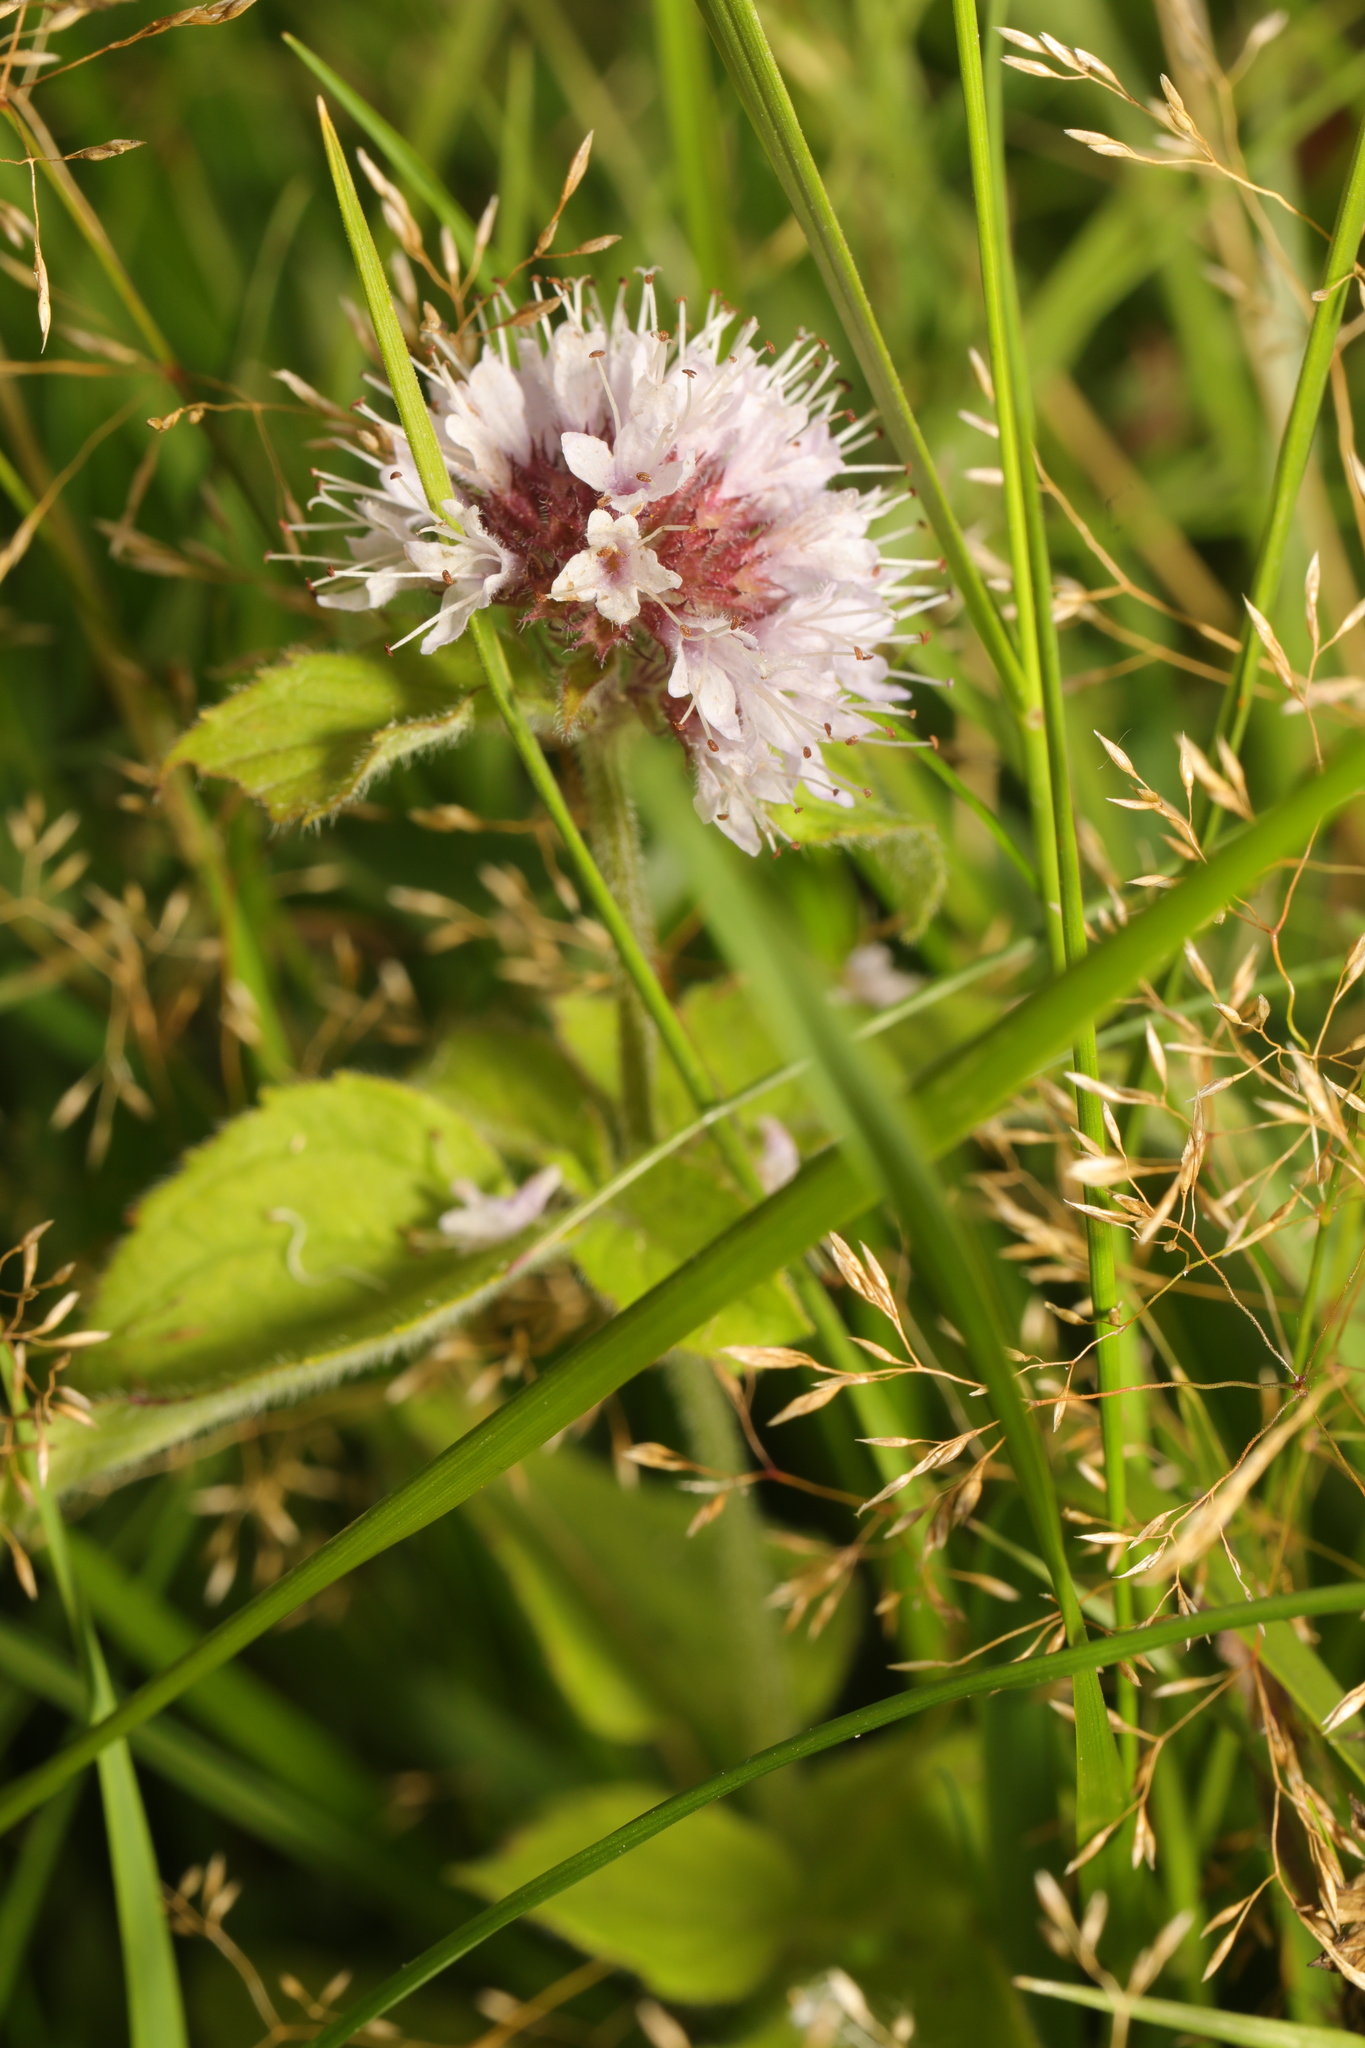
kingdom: Plantae
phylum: Tracheophyta
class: Magnoliopsida
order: Lamiales
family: Lamiaceae
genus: Mentha
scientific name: Mentha aquatica
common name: Water mint
